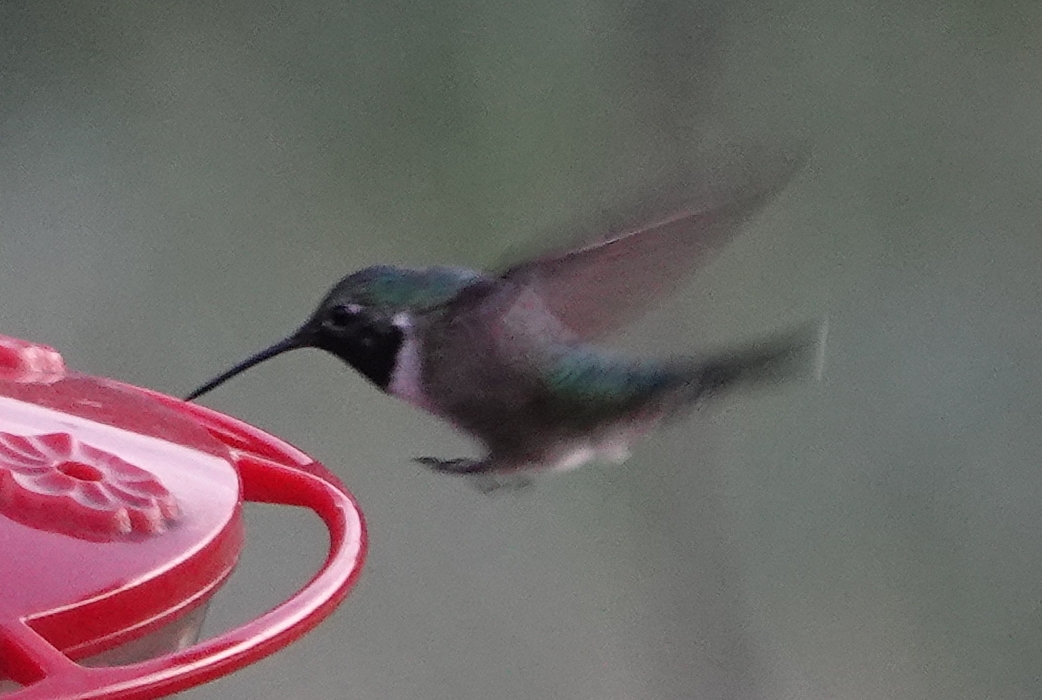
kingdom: Animalia
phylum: Chordata
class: Aves
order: Apodiformes
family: Trochilidae
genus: Selasphorus
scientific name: Selasphorus platycercus
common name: Broad-tailed hummingbird
